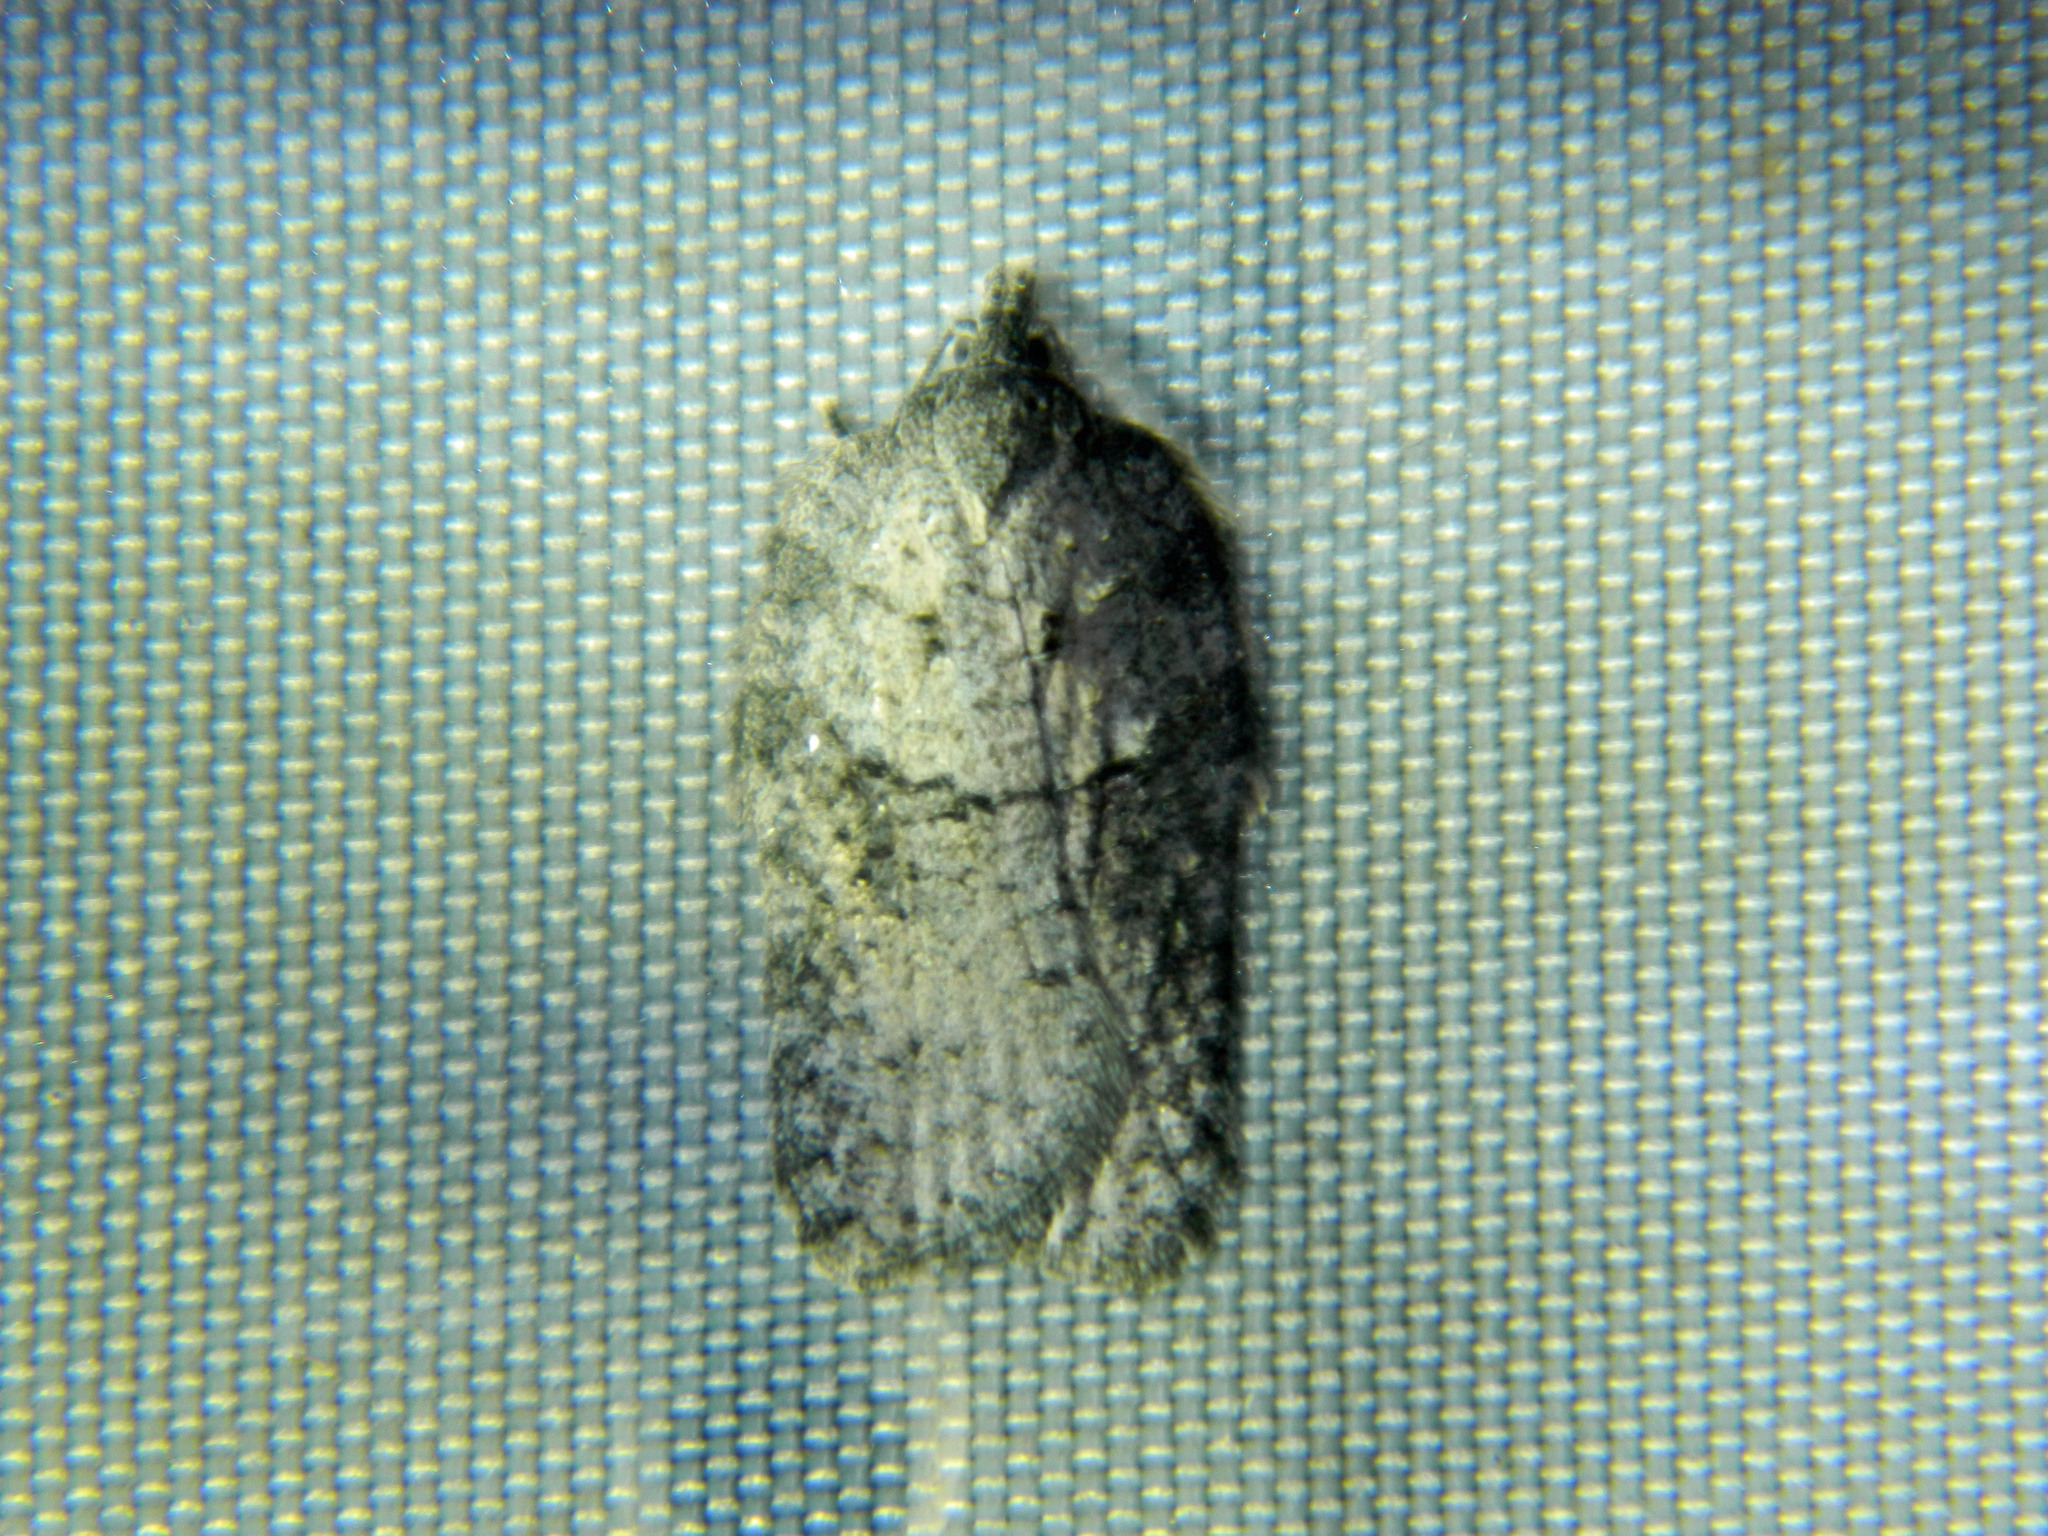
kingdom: Animalia
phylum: Arthropoda
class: Insecta
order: Lepidoptera
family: Tortricidae
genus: Acleris
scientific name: Acleris nigrolinea
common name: Black-lined acleris
